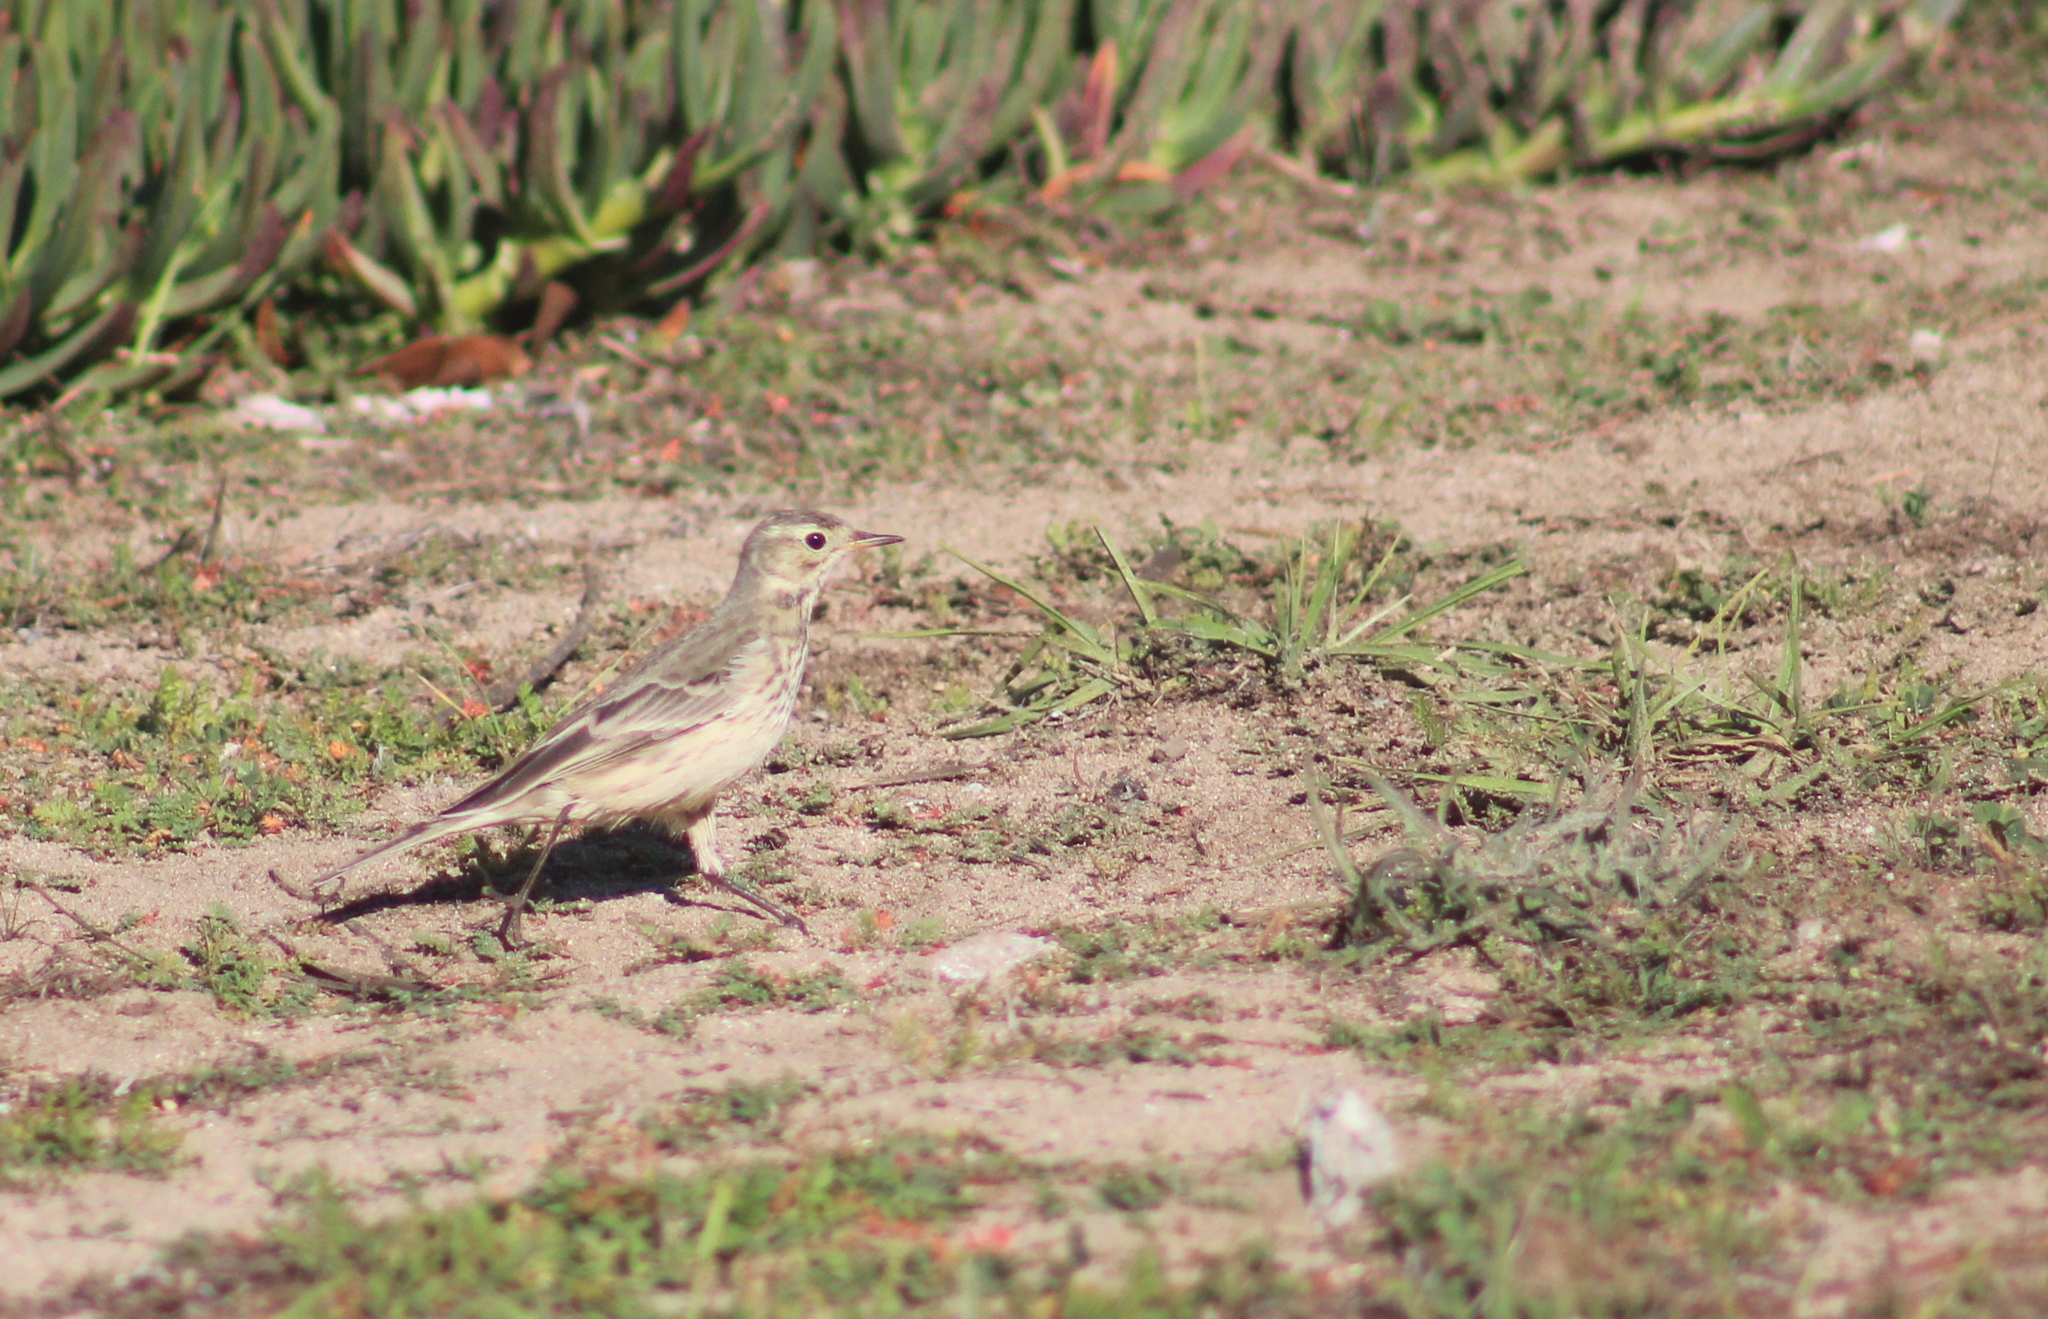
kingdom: Animalia
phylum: Chordata
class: Aves
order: Passeriformes
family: Motacillidae
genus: Anthus
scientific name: Anthus rubescens
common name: Buff-bellied pipit
